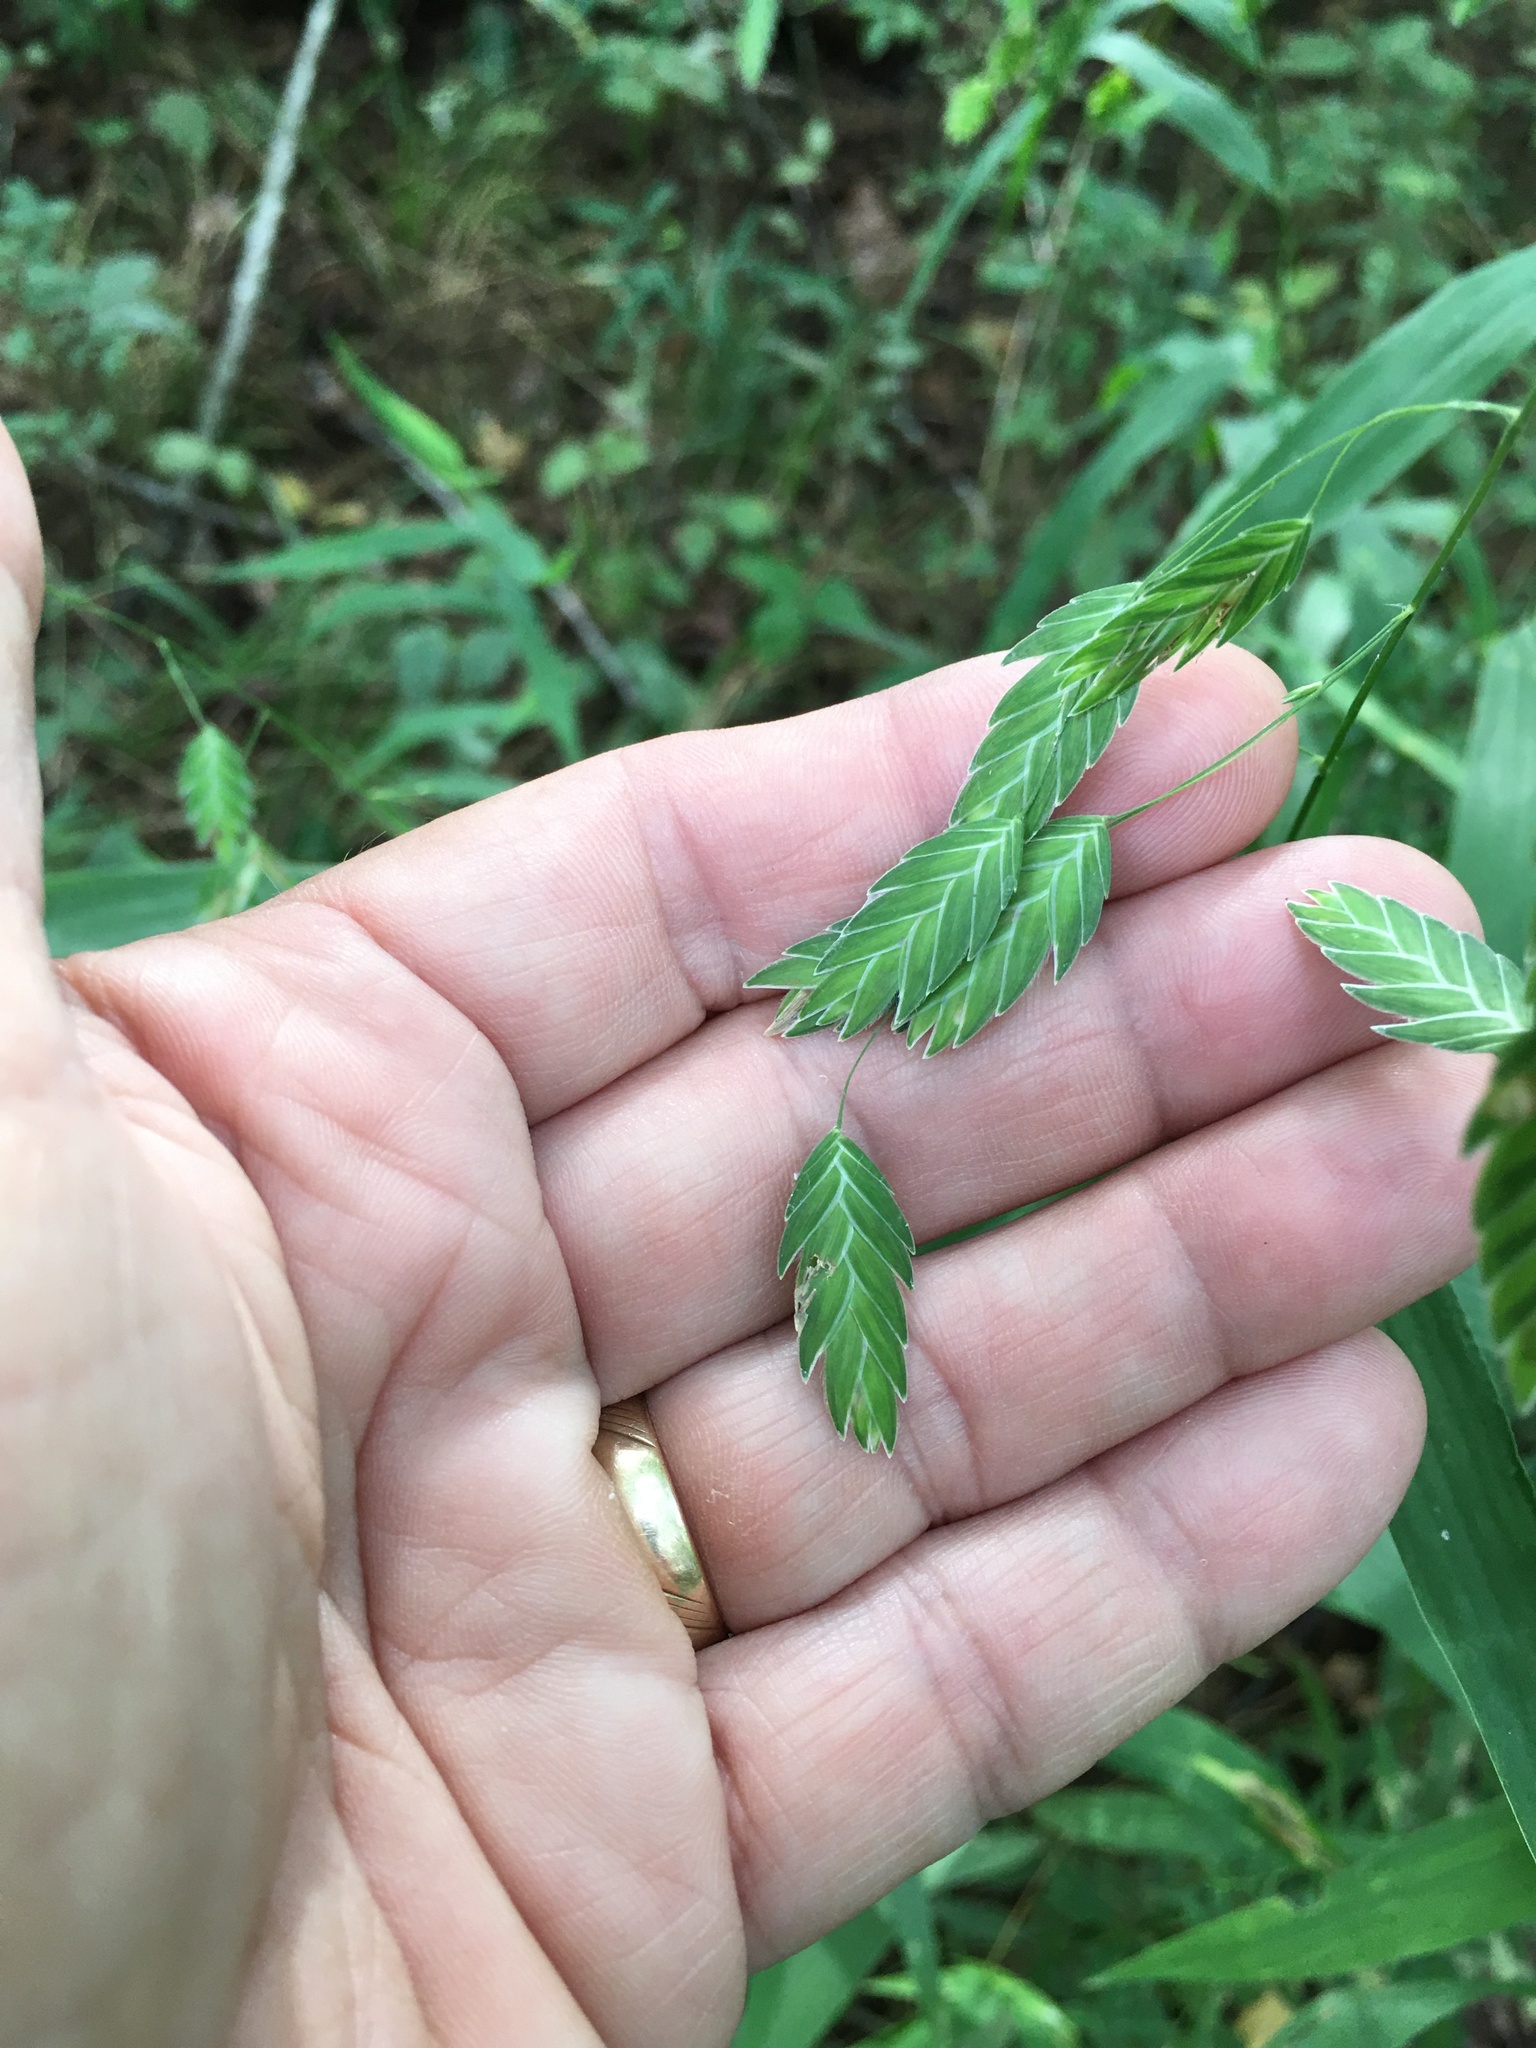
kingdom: Plantae
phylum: Tracheophyta
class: Liliopsida
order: Poales
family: Poaceae
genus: Chasmanthium
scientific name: Chasmanthium latifolium
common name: Broad-leaved chasmanthium
